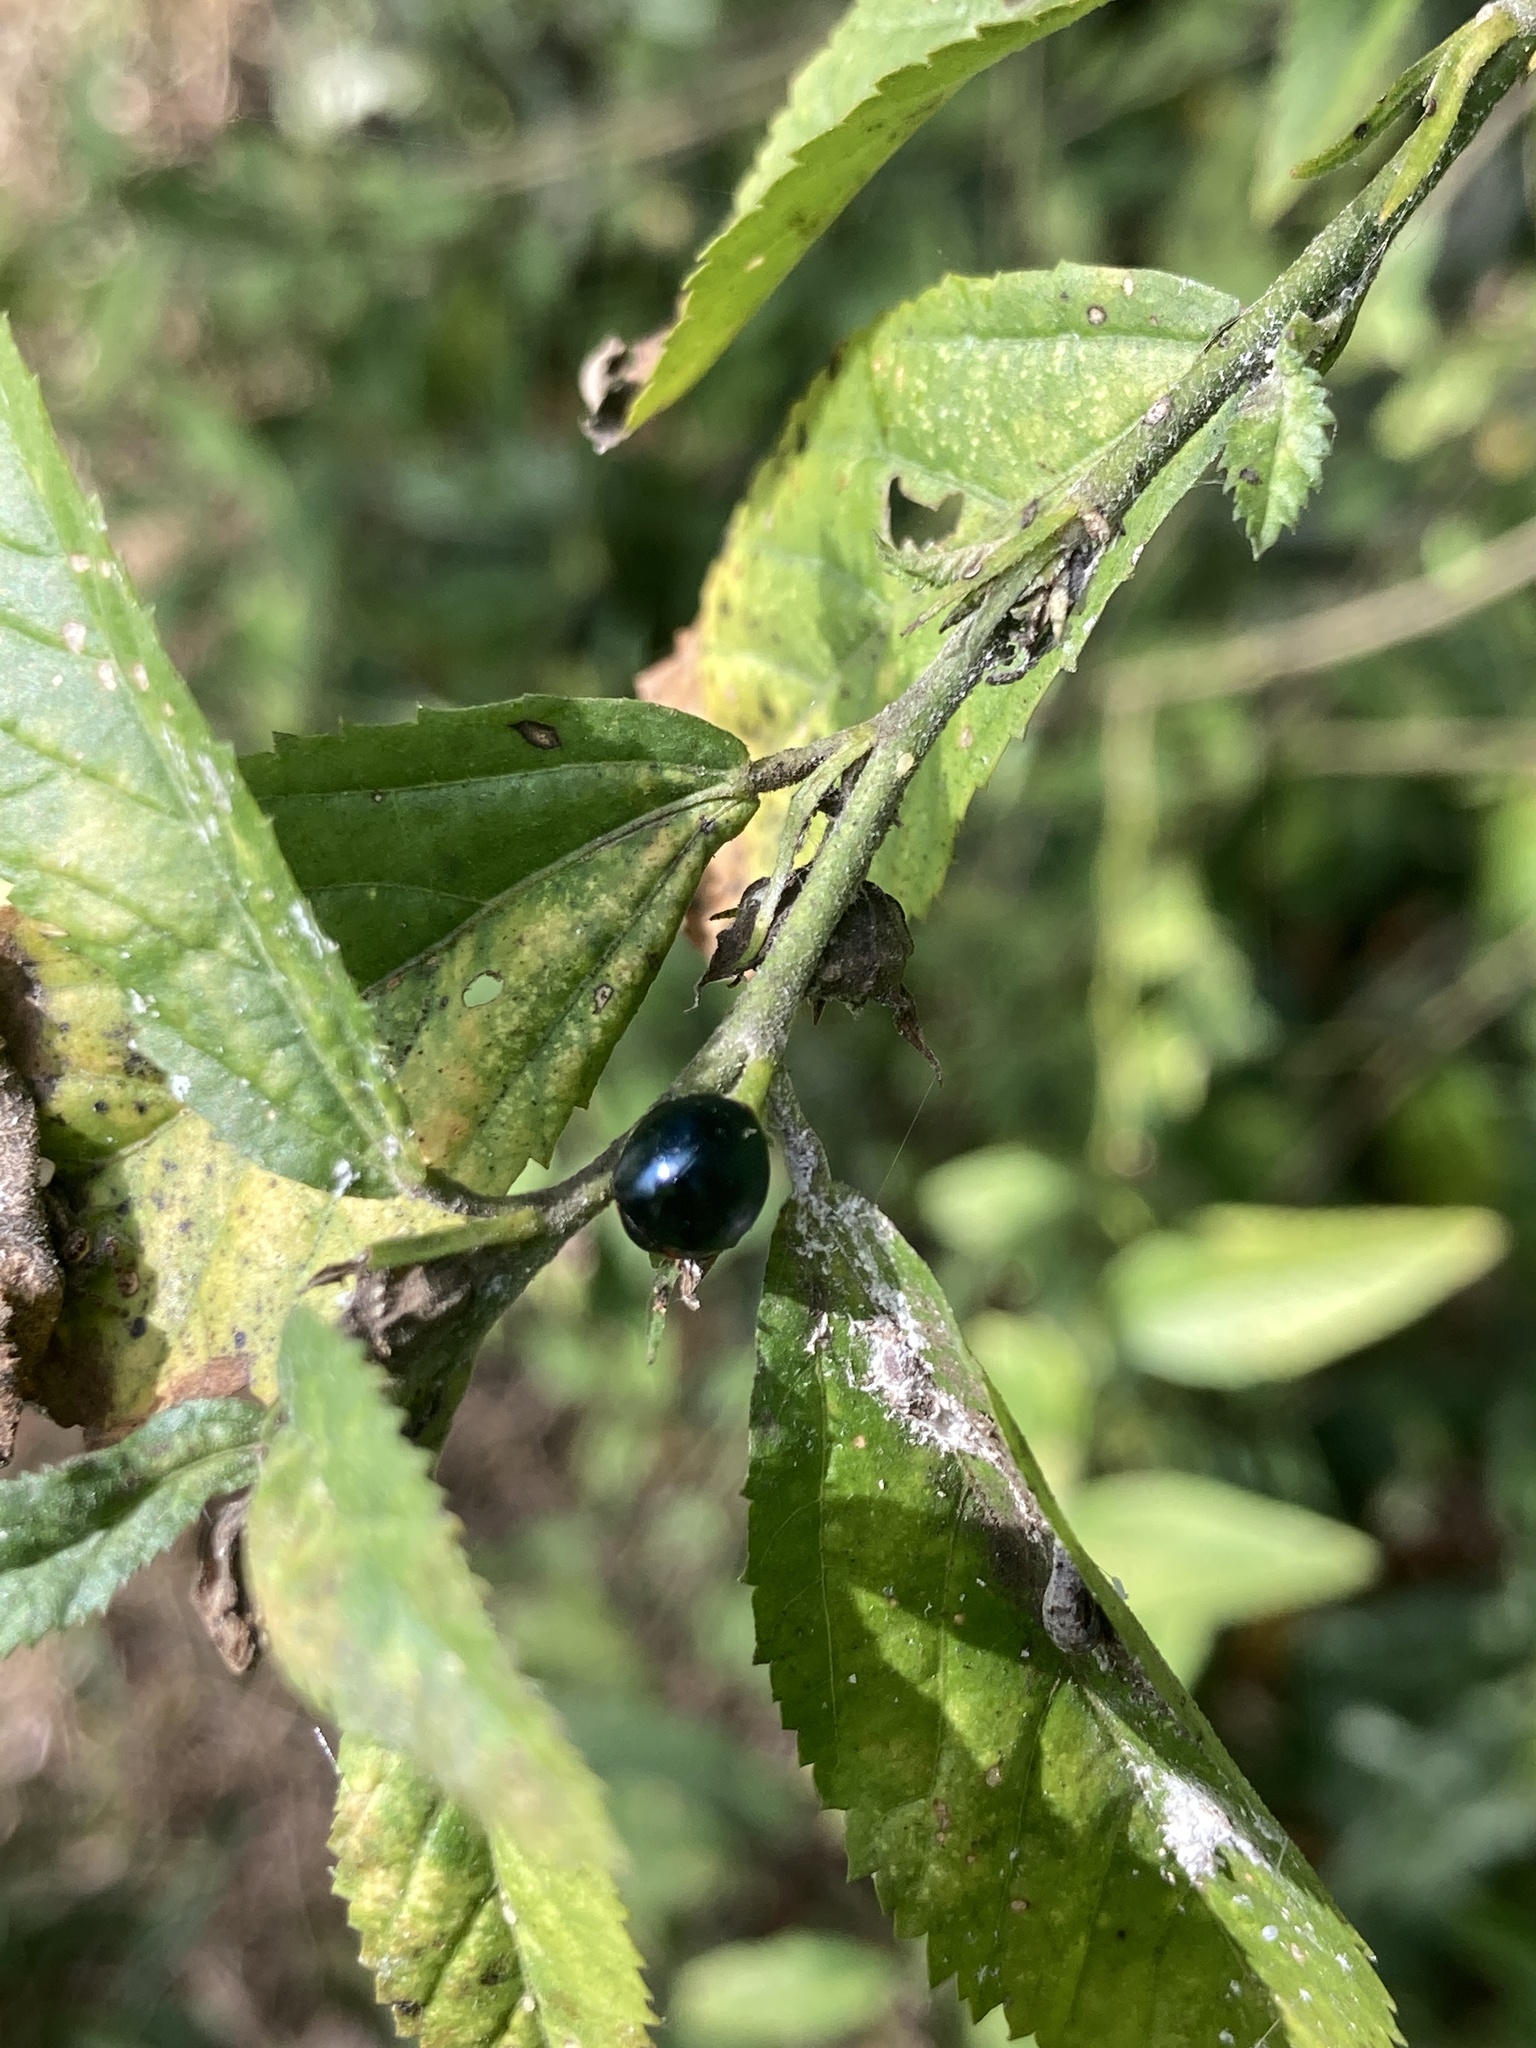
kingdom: Animalia
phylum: Arthropoda
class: Insecta
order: Coleoptera
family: Coccinellidae
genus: Curinus
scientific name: Curinus coeruleus
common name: Ladybird beetle
